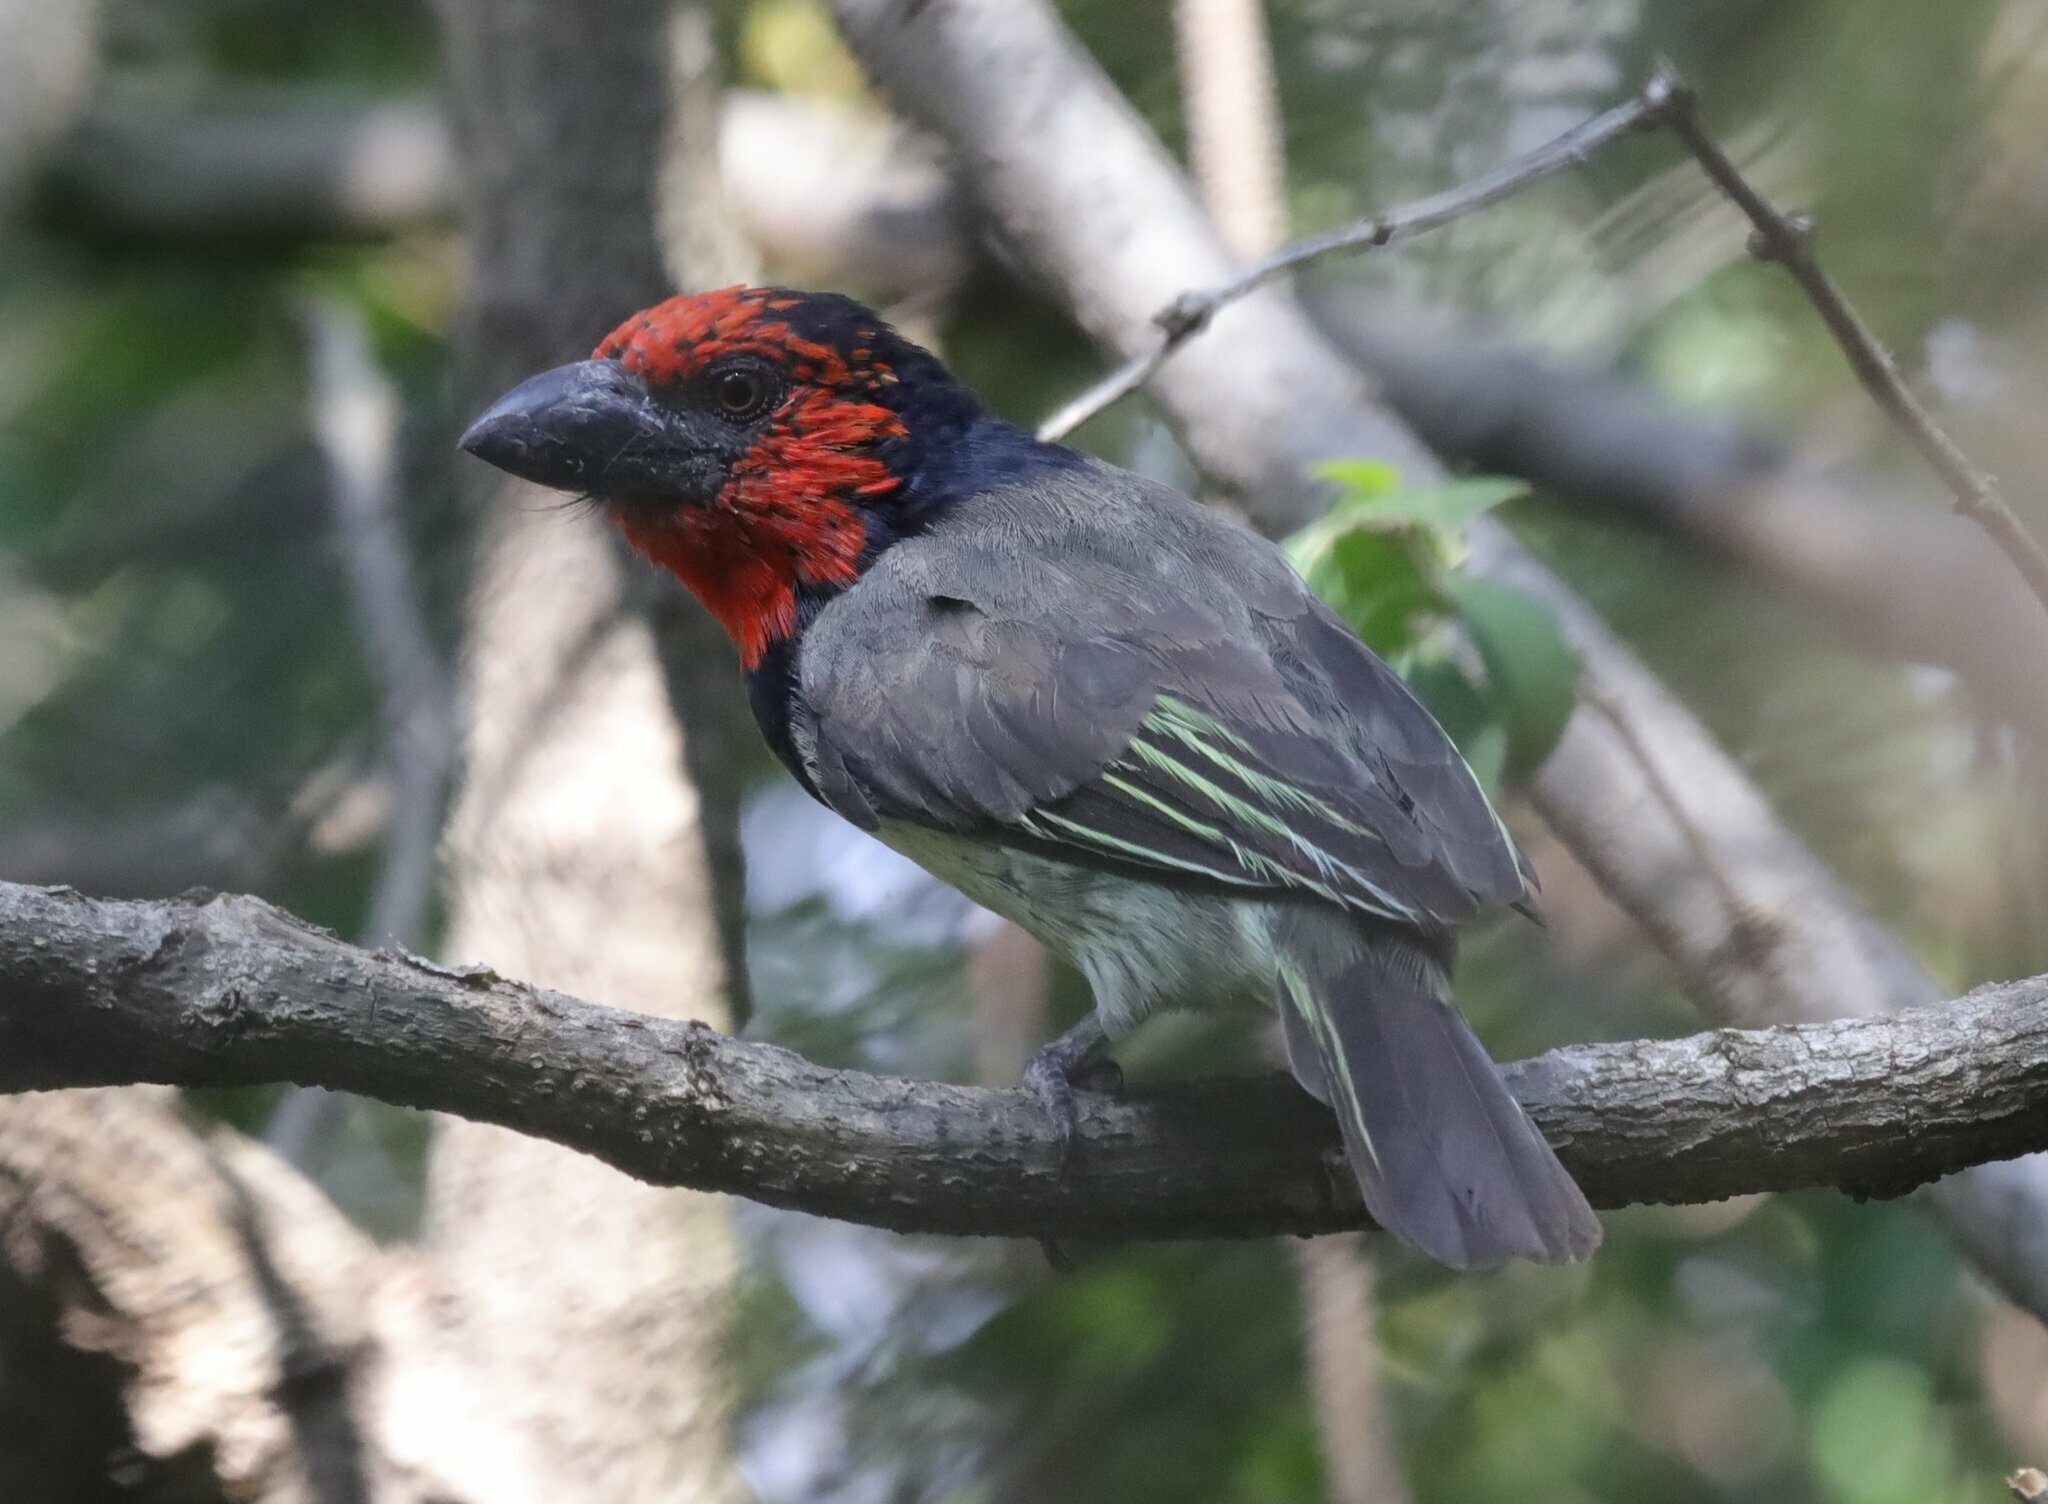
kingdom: Animalia
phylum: Chordata
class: Aves
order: Piciformes
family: Lybiidae
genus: Lybius
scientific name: Lybius torquatus
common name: Black-collared barbet
